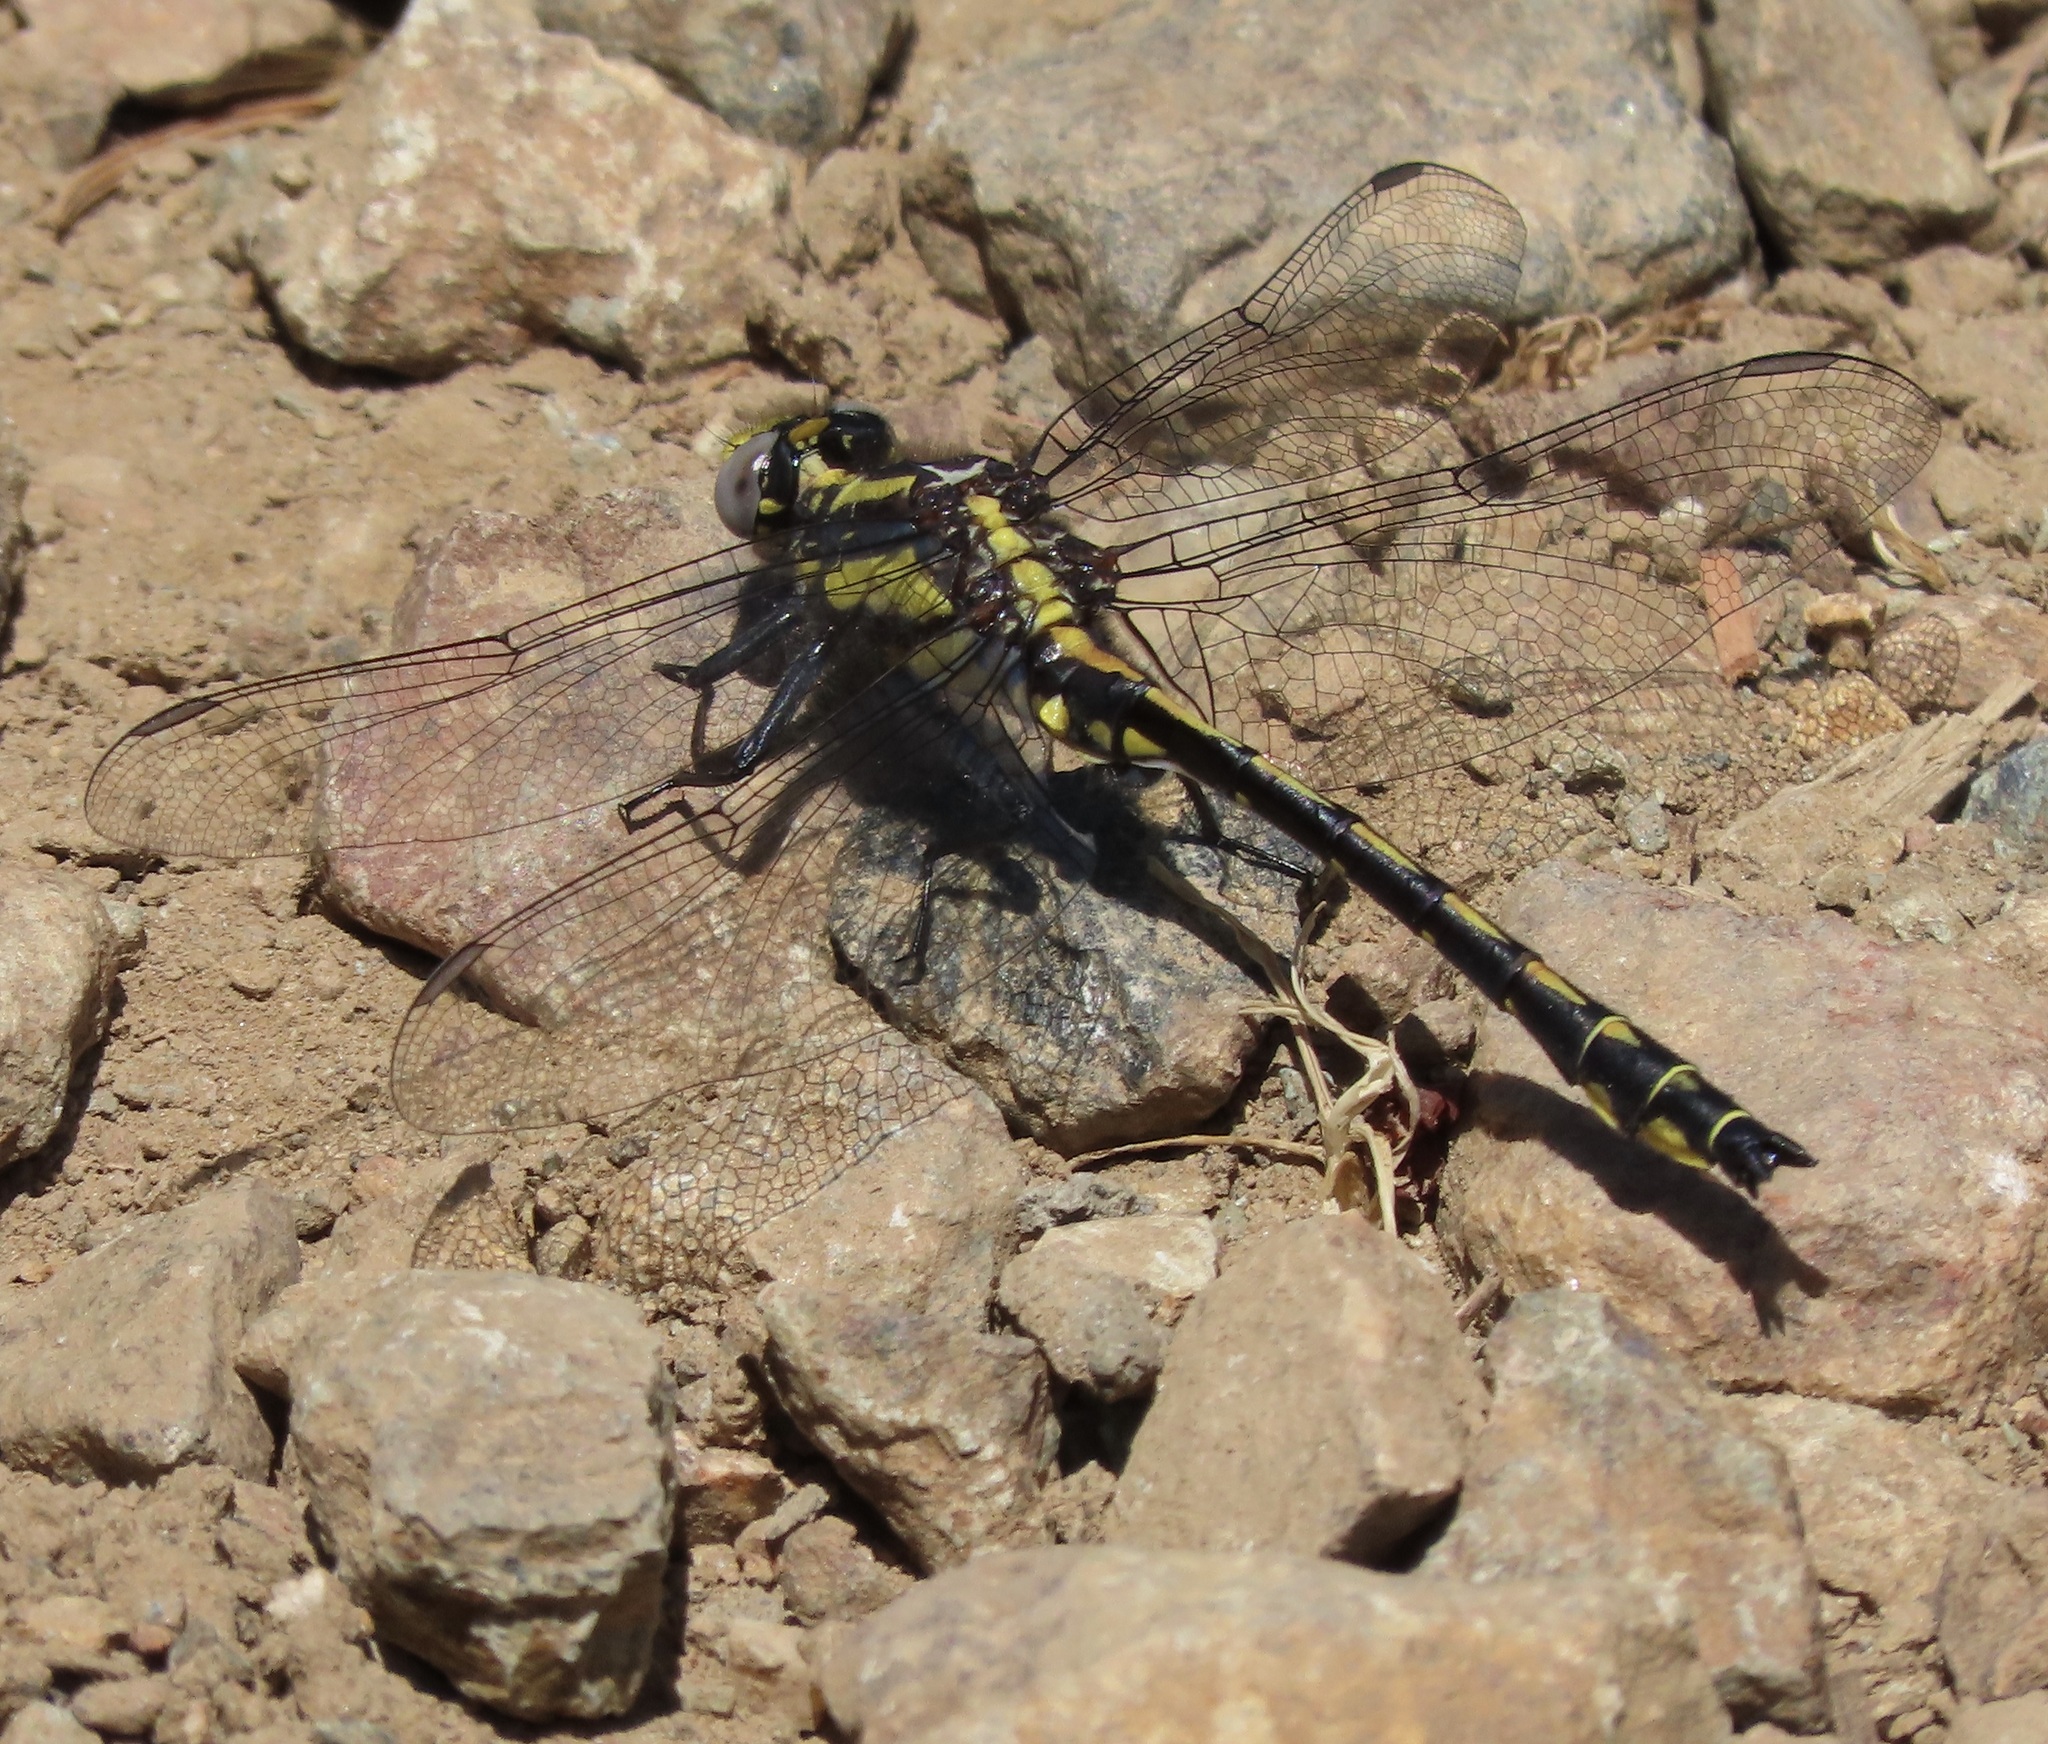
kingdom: Animalia
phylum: Arthropoda
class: Insecta
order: Odonata
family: Gomphidae
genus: Phanogomphus
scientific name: Phanogomphus kurilis
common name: Pacific clubtail
